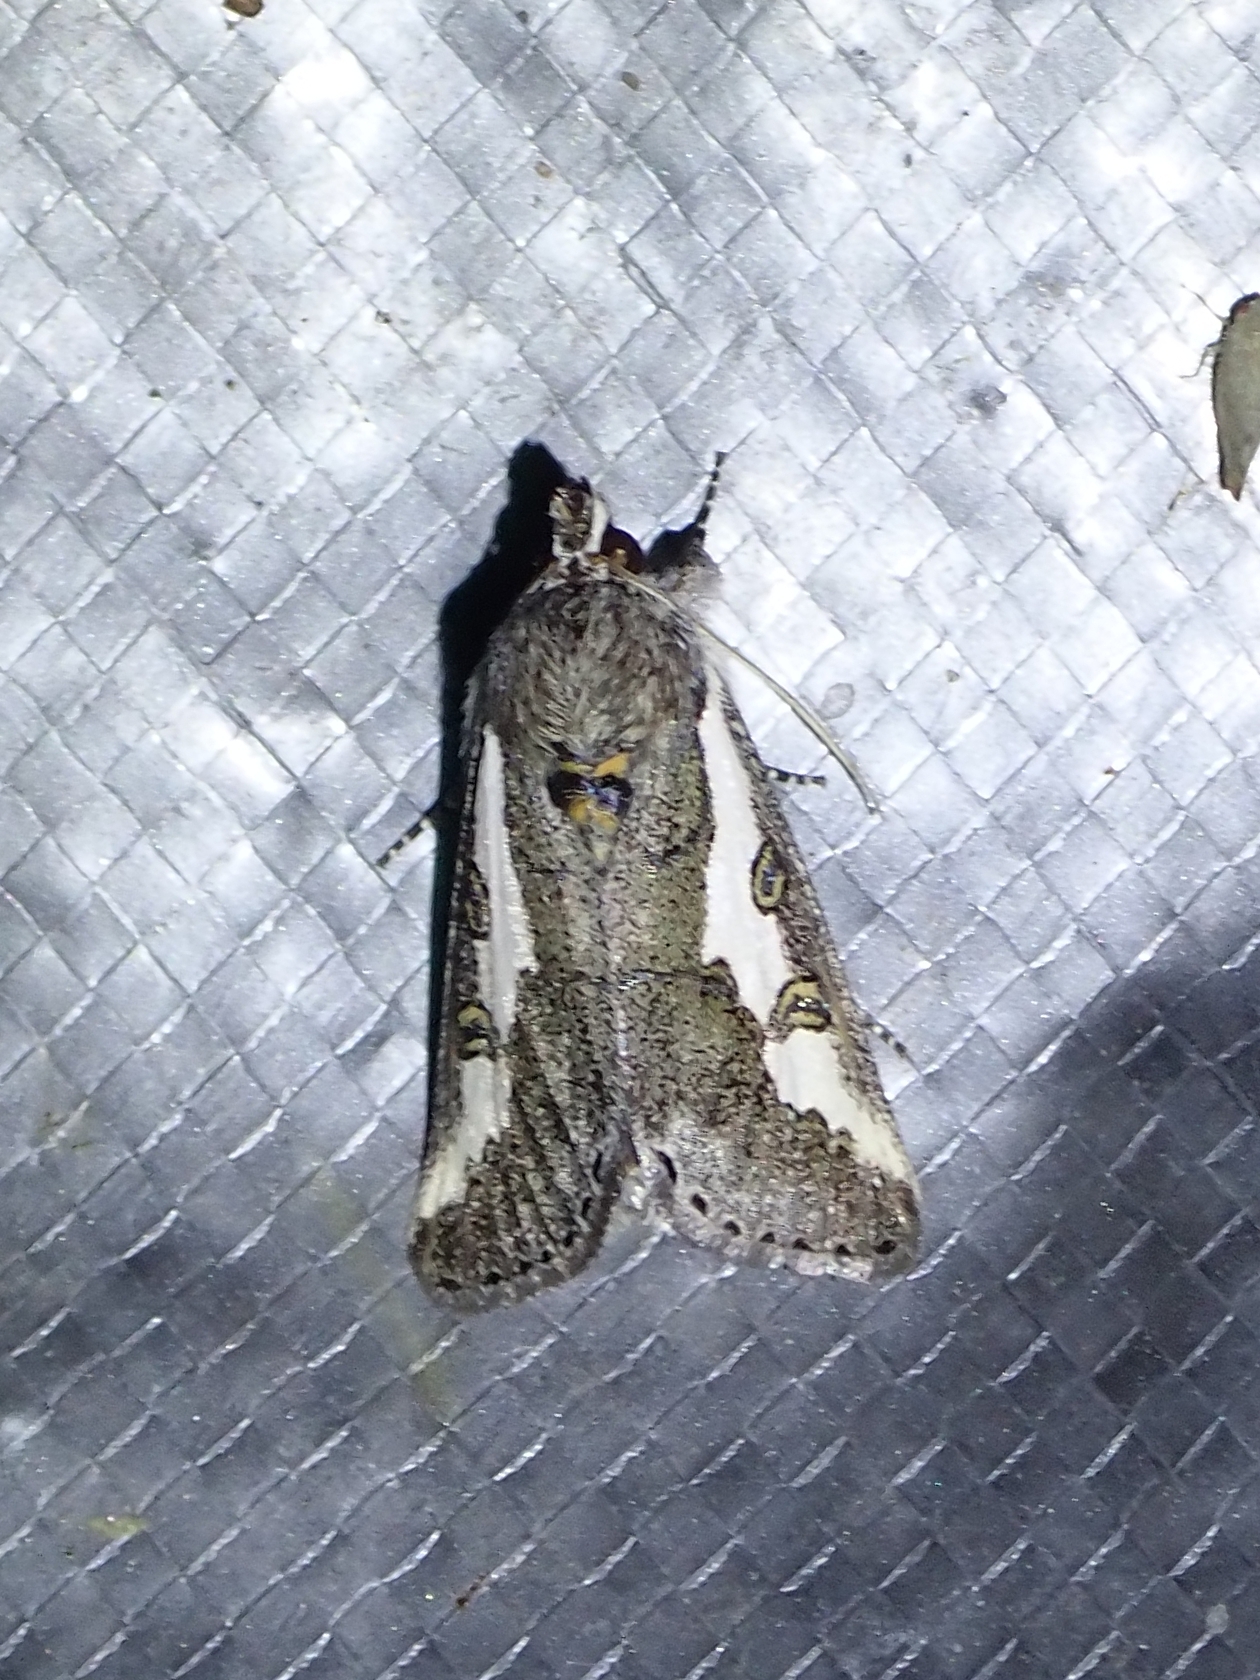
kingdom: Animalia
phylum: Arthropoda
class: Insecta
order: Lepidoptera
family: Noctuidae
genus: Euscirrhopterus
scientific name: Euscirrhopterus gloveri
